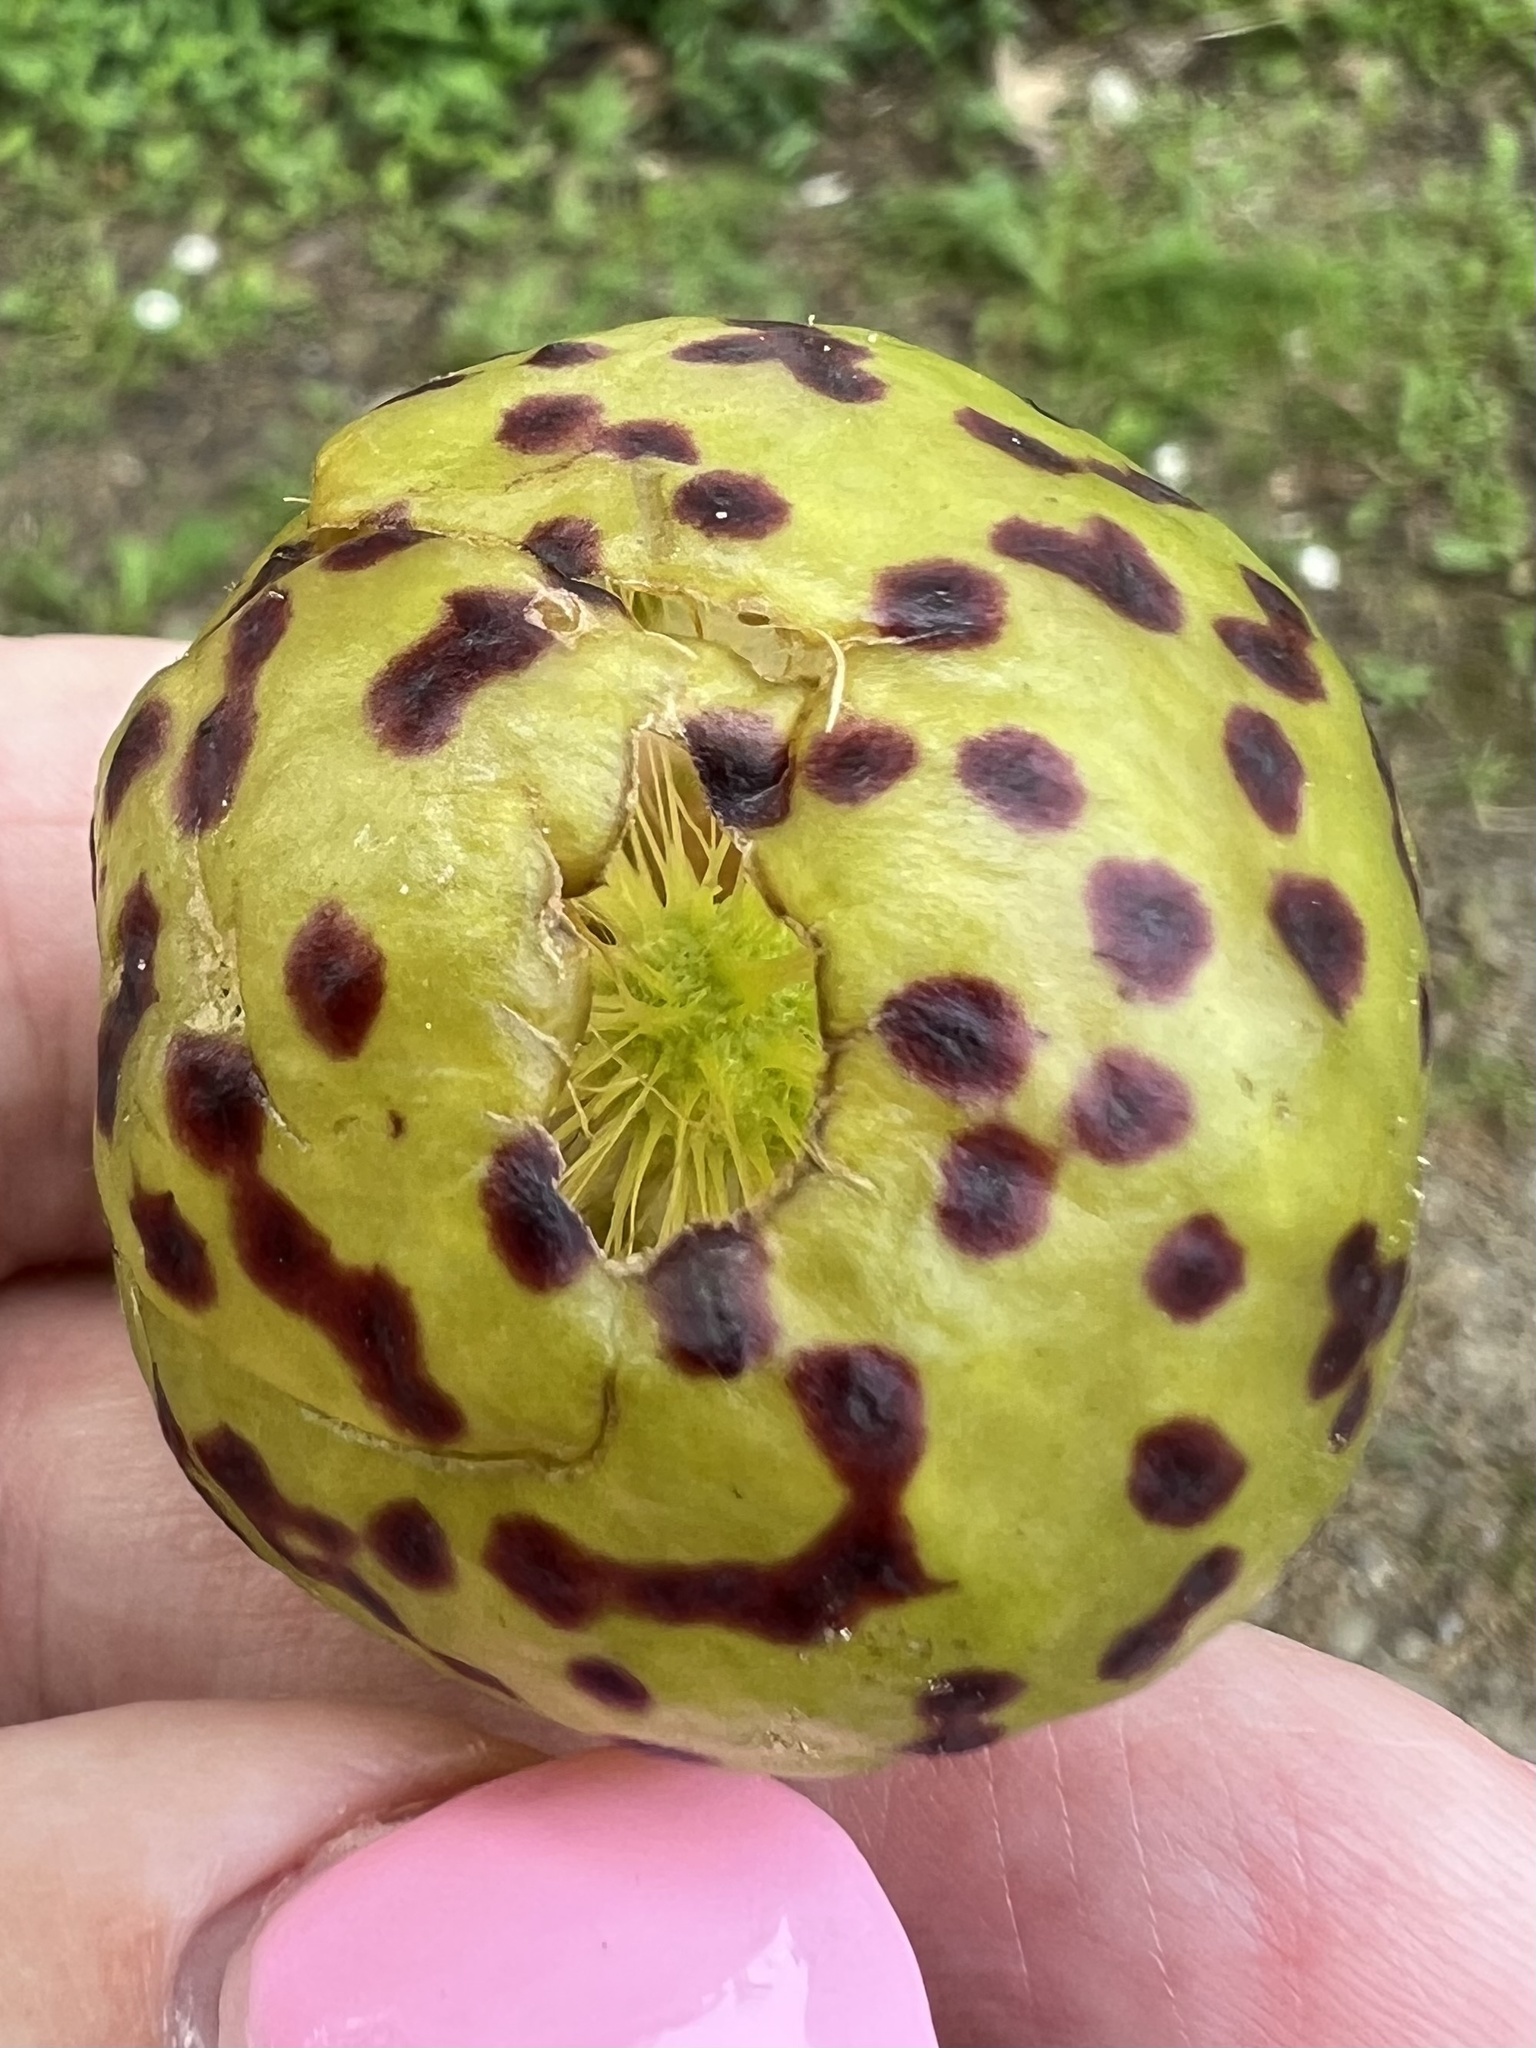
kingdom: Animalia
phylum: Arthropoda
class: Insecta
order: Hymenoptera
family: Cynipidae
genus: Amphibolips
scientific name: Amphibolips
